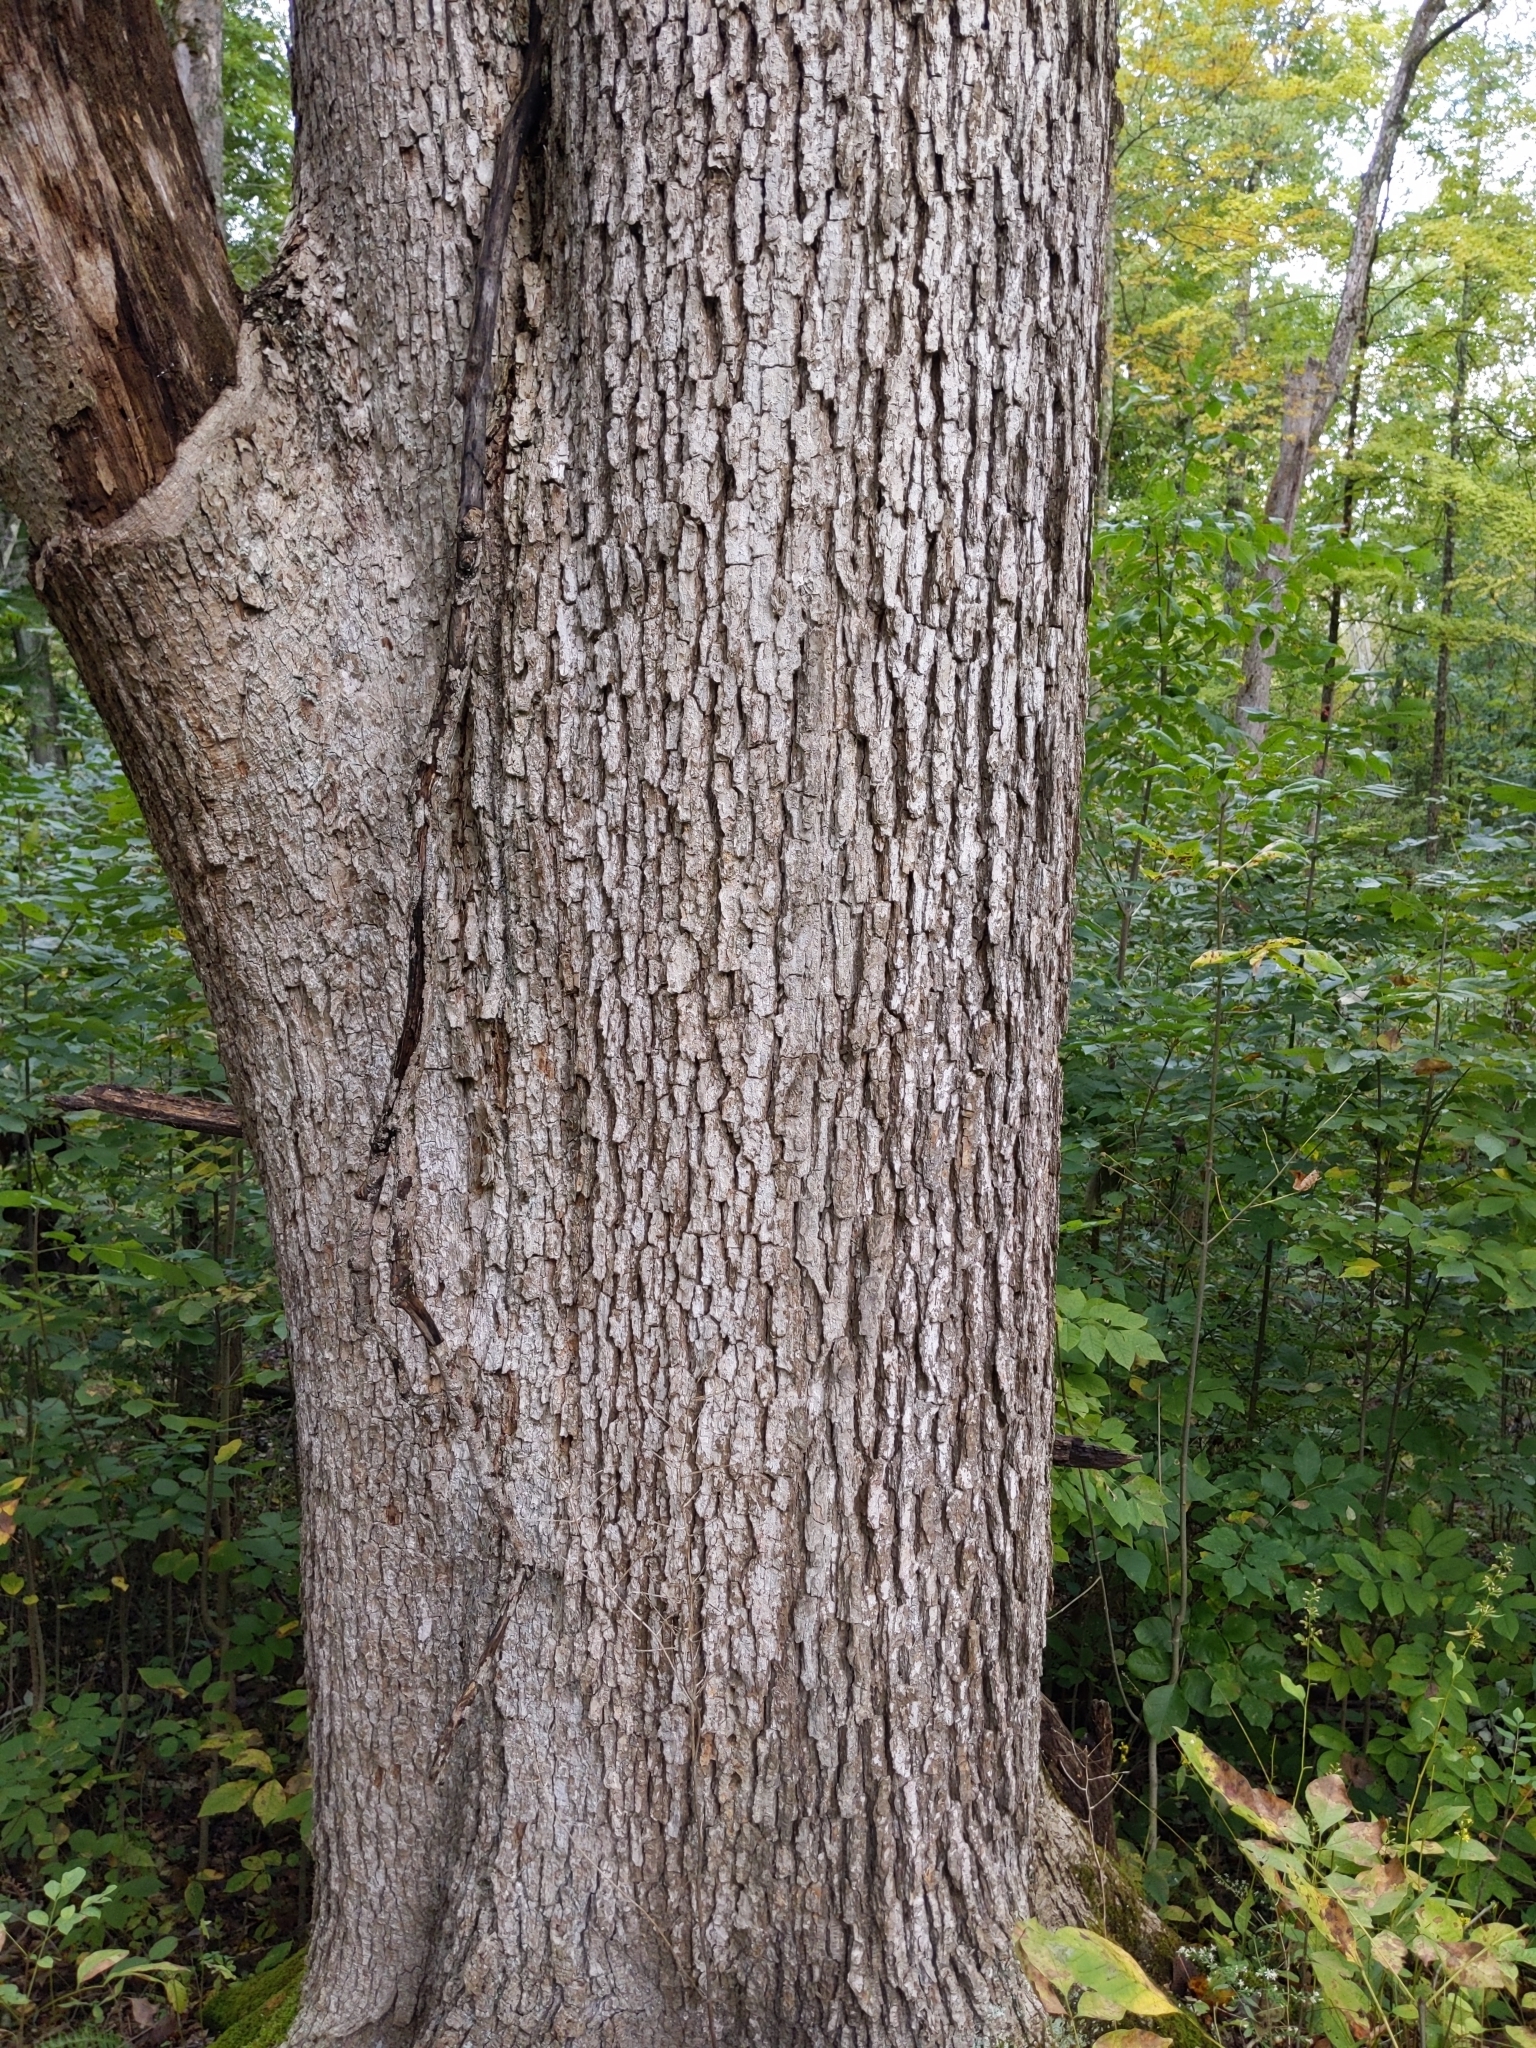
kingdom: Plantae
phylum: Tracheophyta
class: Magnoliopsida
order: Fagales
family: Fagaceae
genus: Quercus
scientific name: Quercus muehlenbergii
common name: Chinkapin oak
